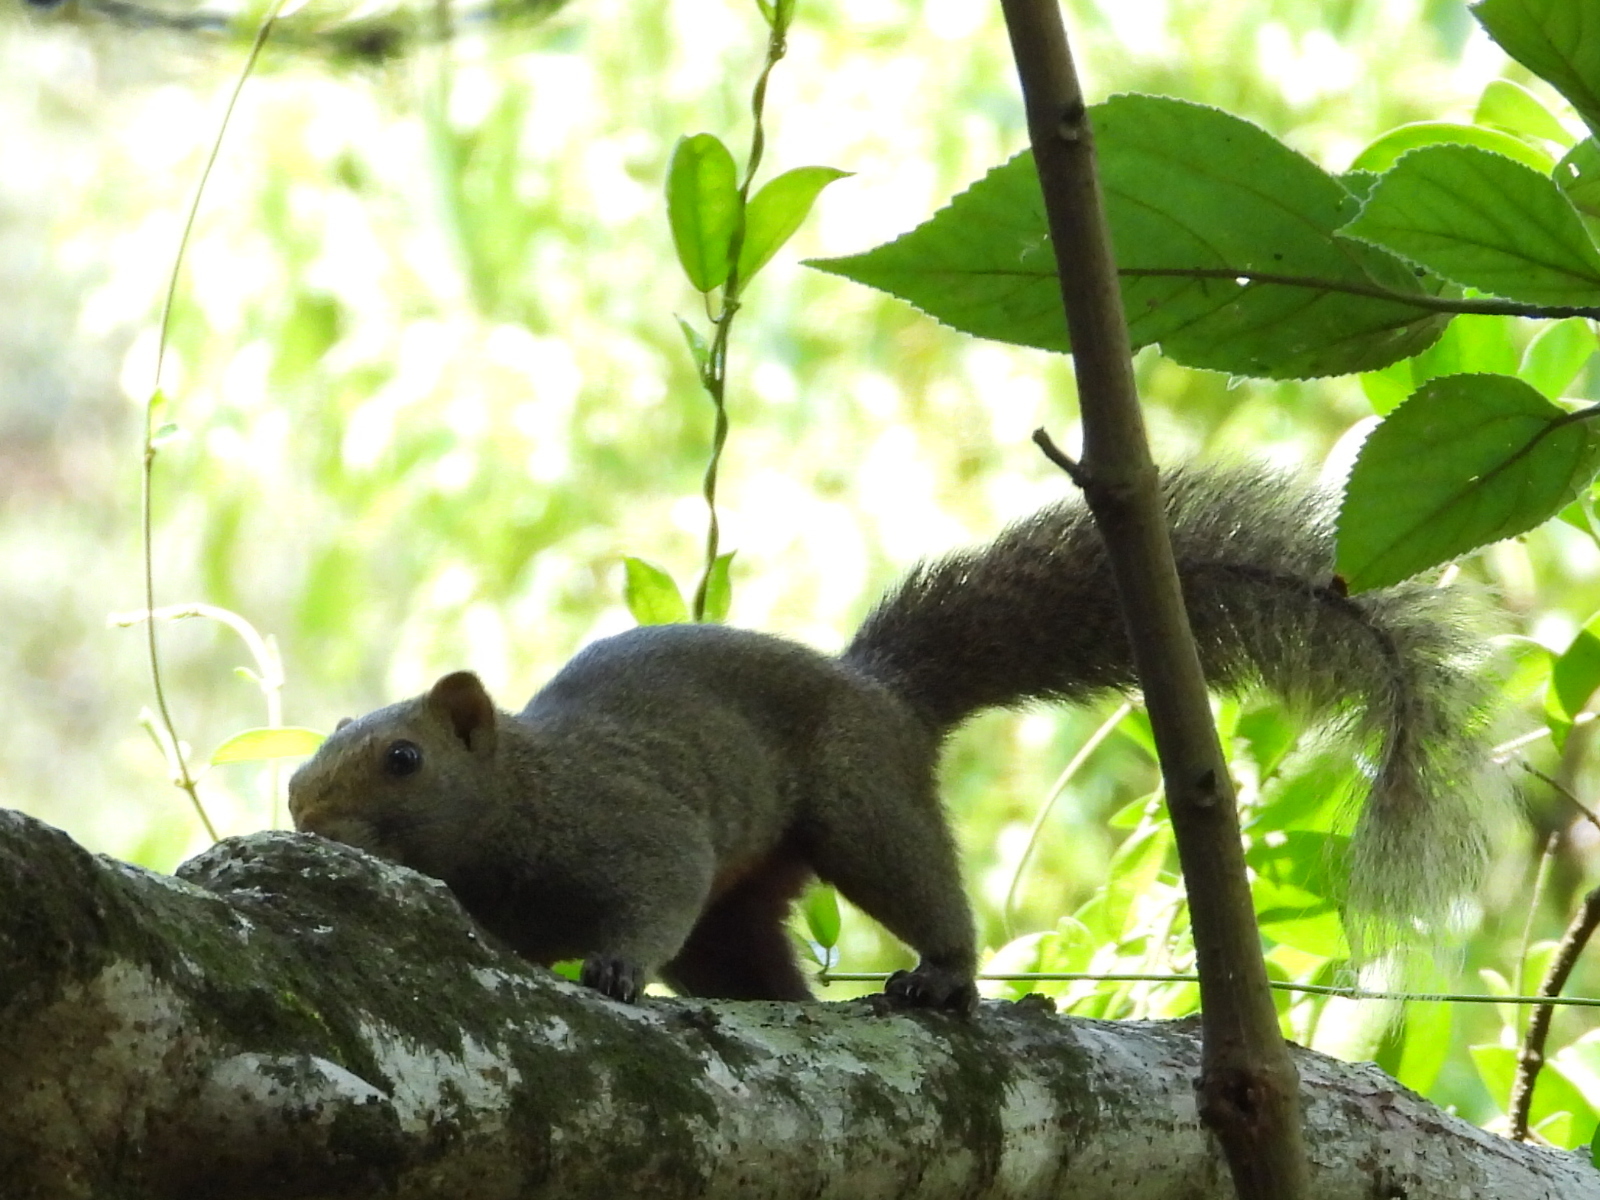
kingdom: Animalia
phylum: Chordata
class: Mammalia
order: Rodentia
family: Sciuridae
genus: Callosciurus
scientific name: Callosciurus erythraeus
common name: Pallas's squirrel
